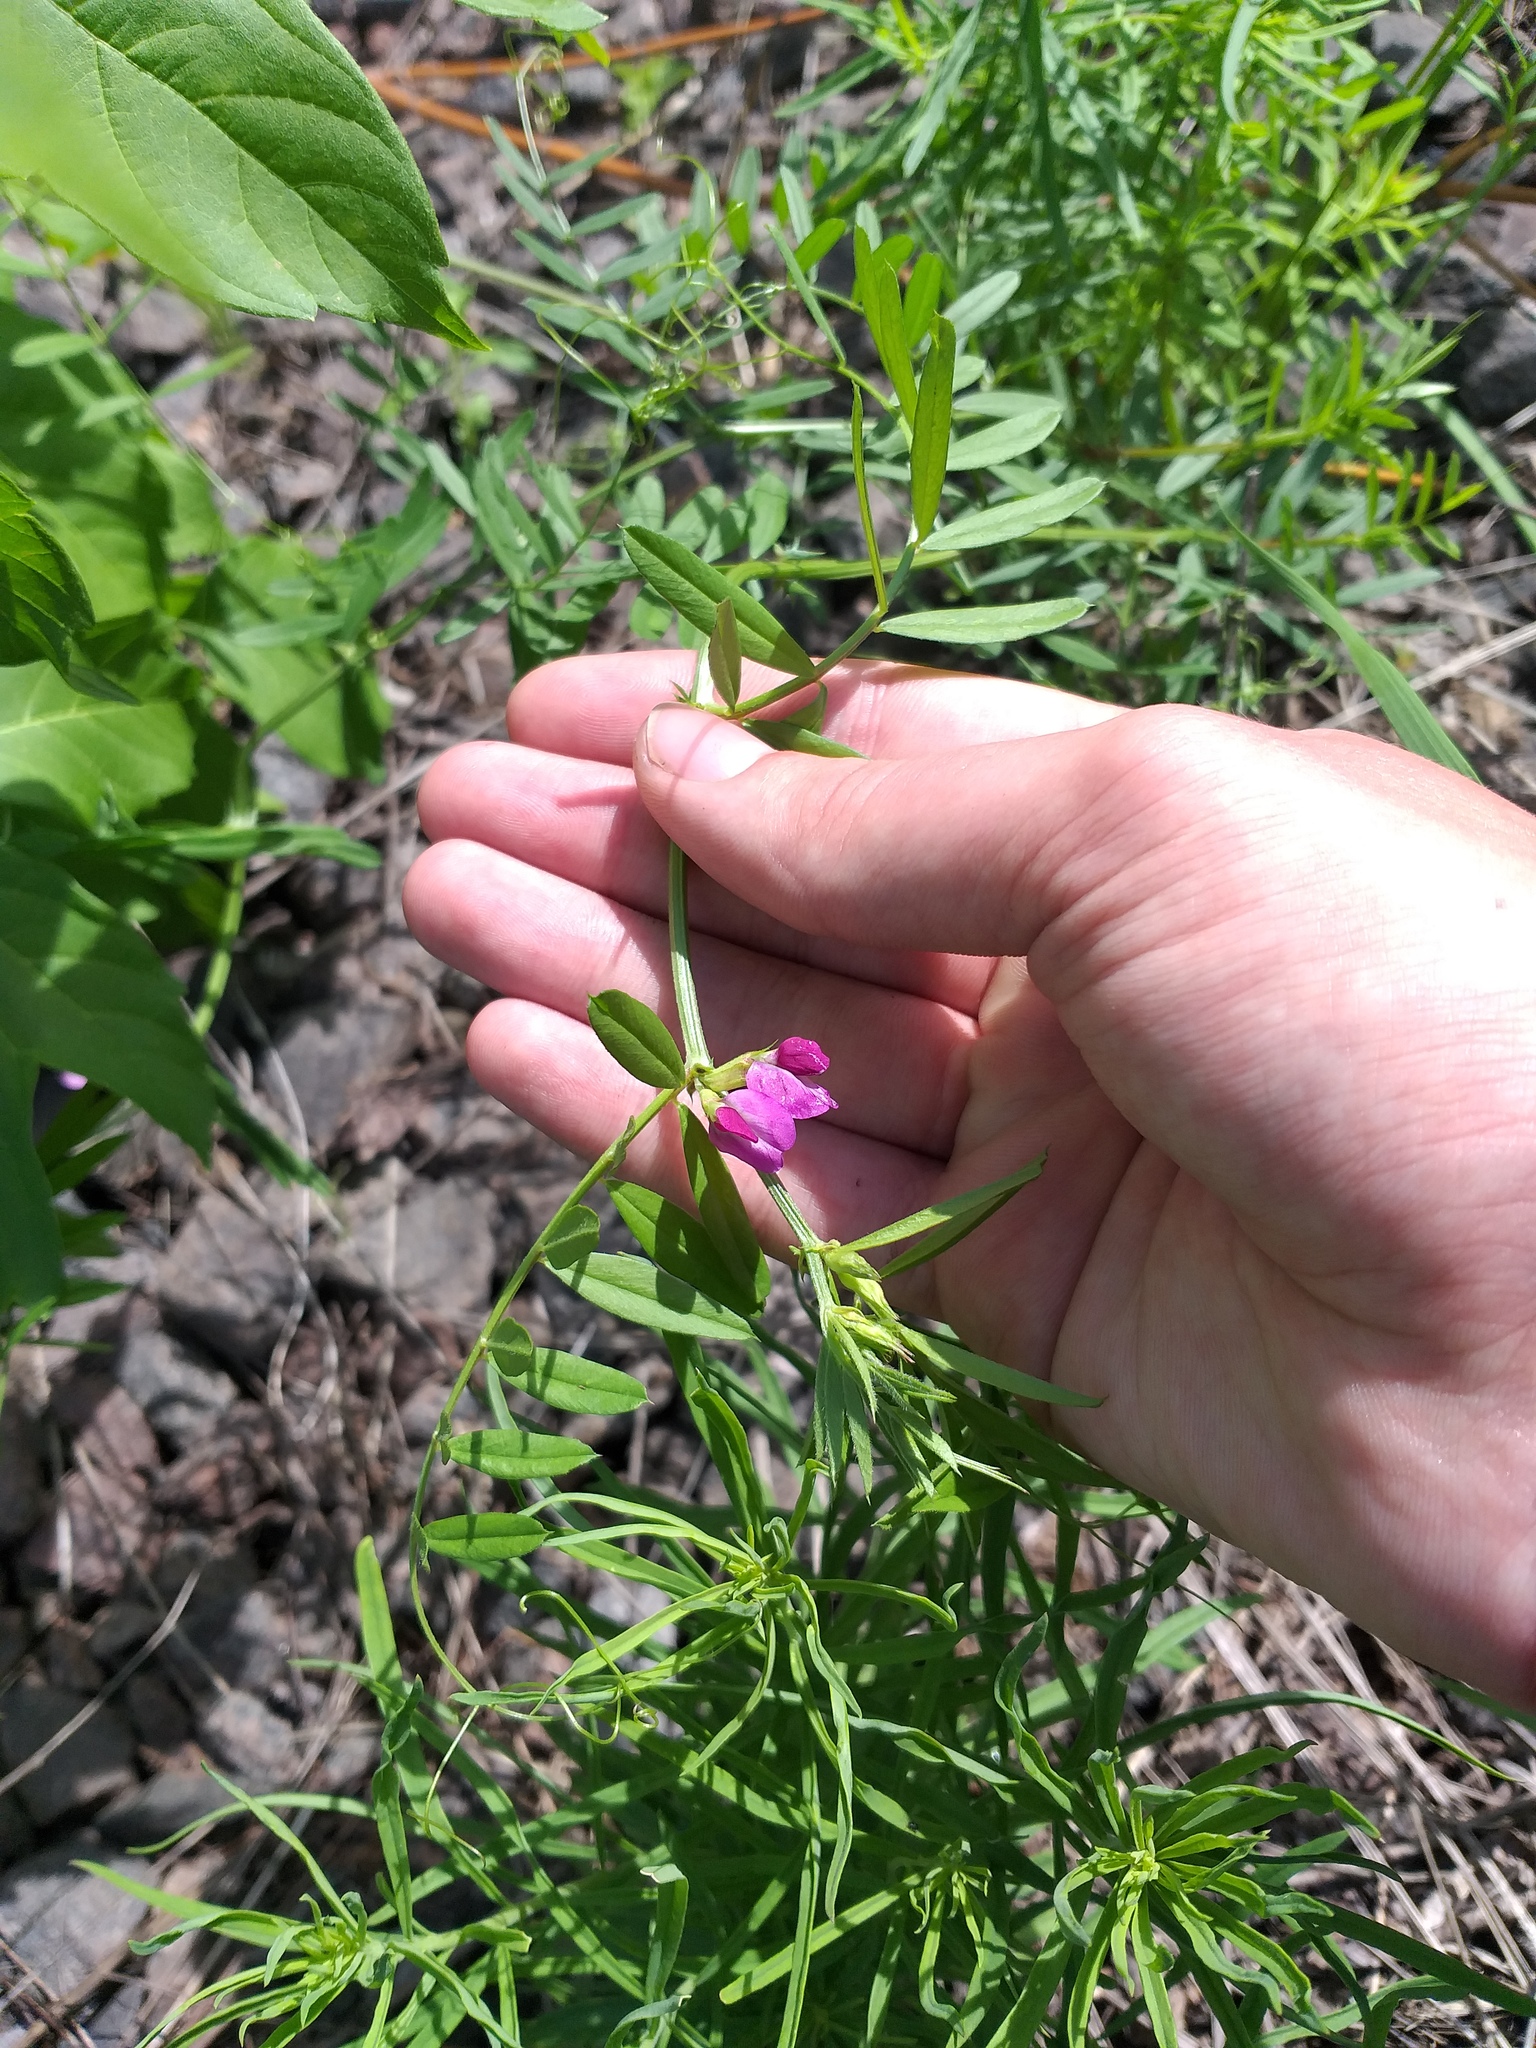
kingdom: Plantae
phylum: Tracheophyta
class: Magnoliopsida
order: Fabales
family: Fabaceae
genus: Vicia
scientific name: Vicia sativa
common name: Garden vetch
